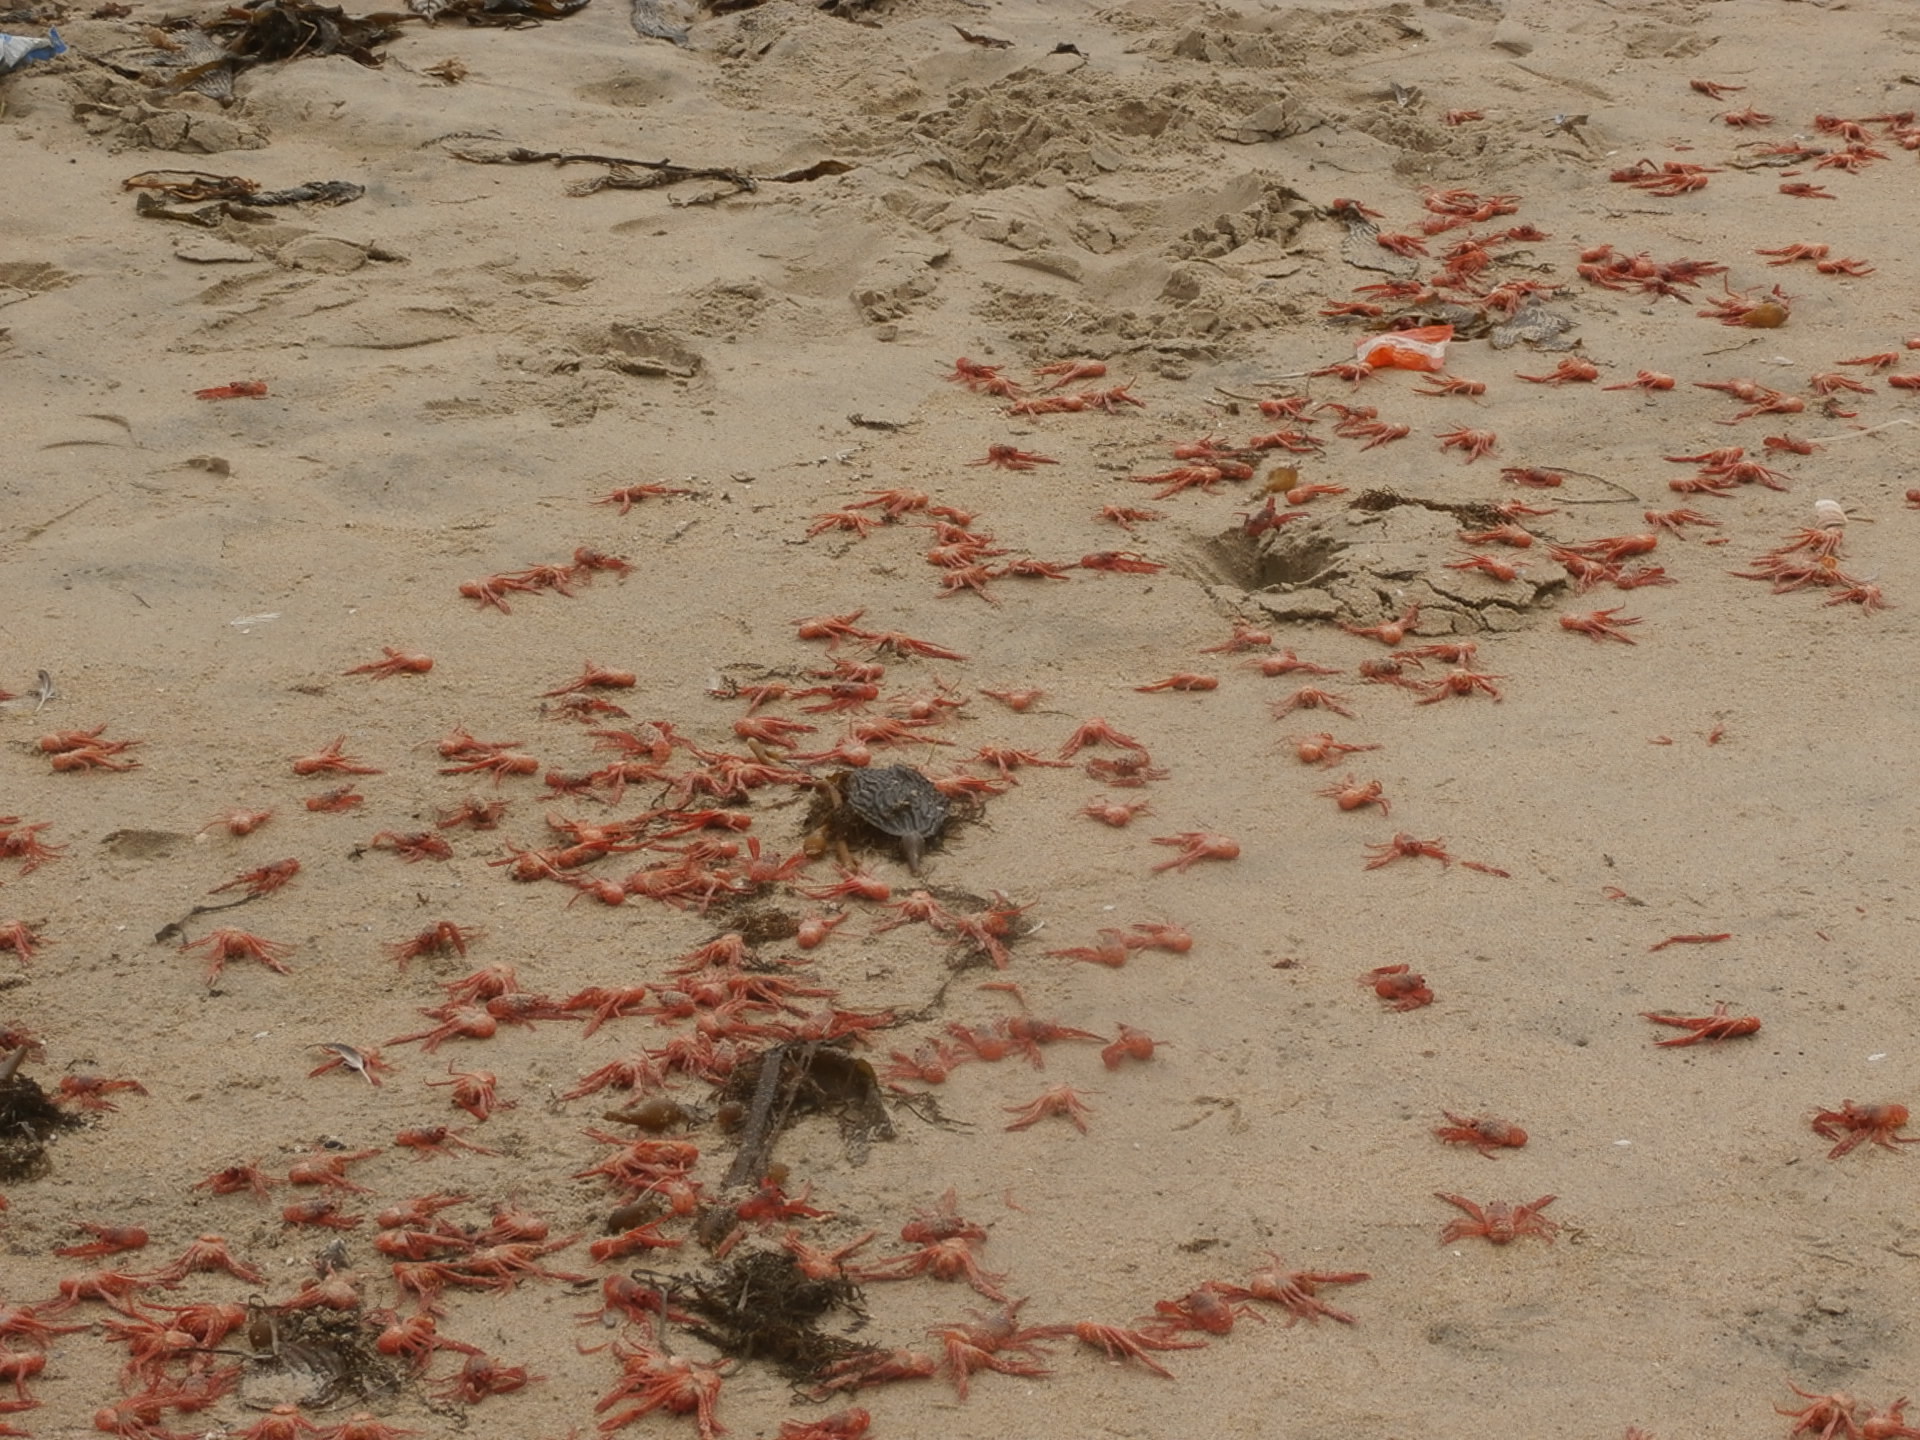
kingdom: Animalia
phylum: Arthropoda
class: Malacostraca
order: Decapoda
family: Munididae
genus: Grimothea
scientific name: Grimothea planipes
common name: Pelagic red crab
